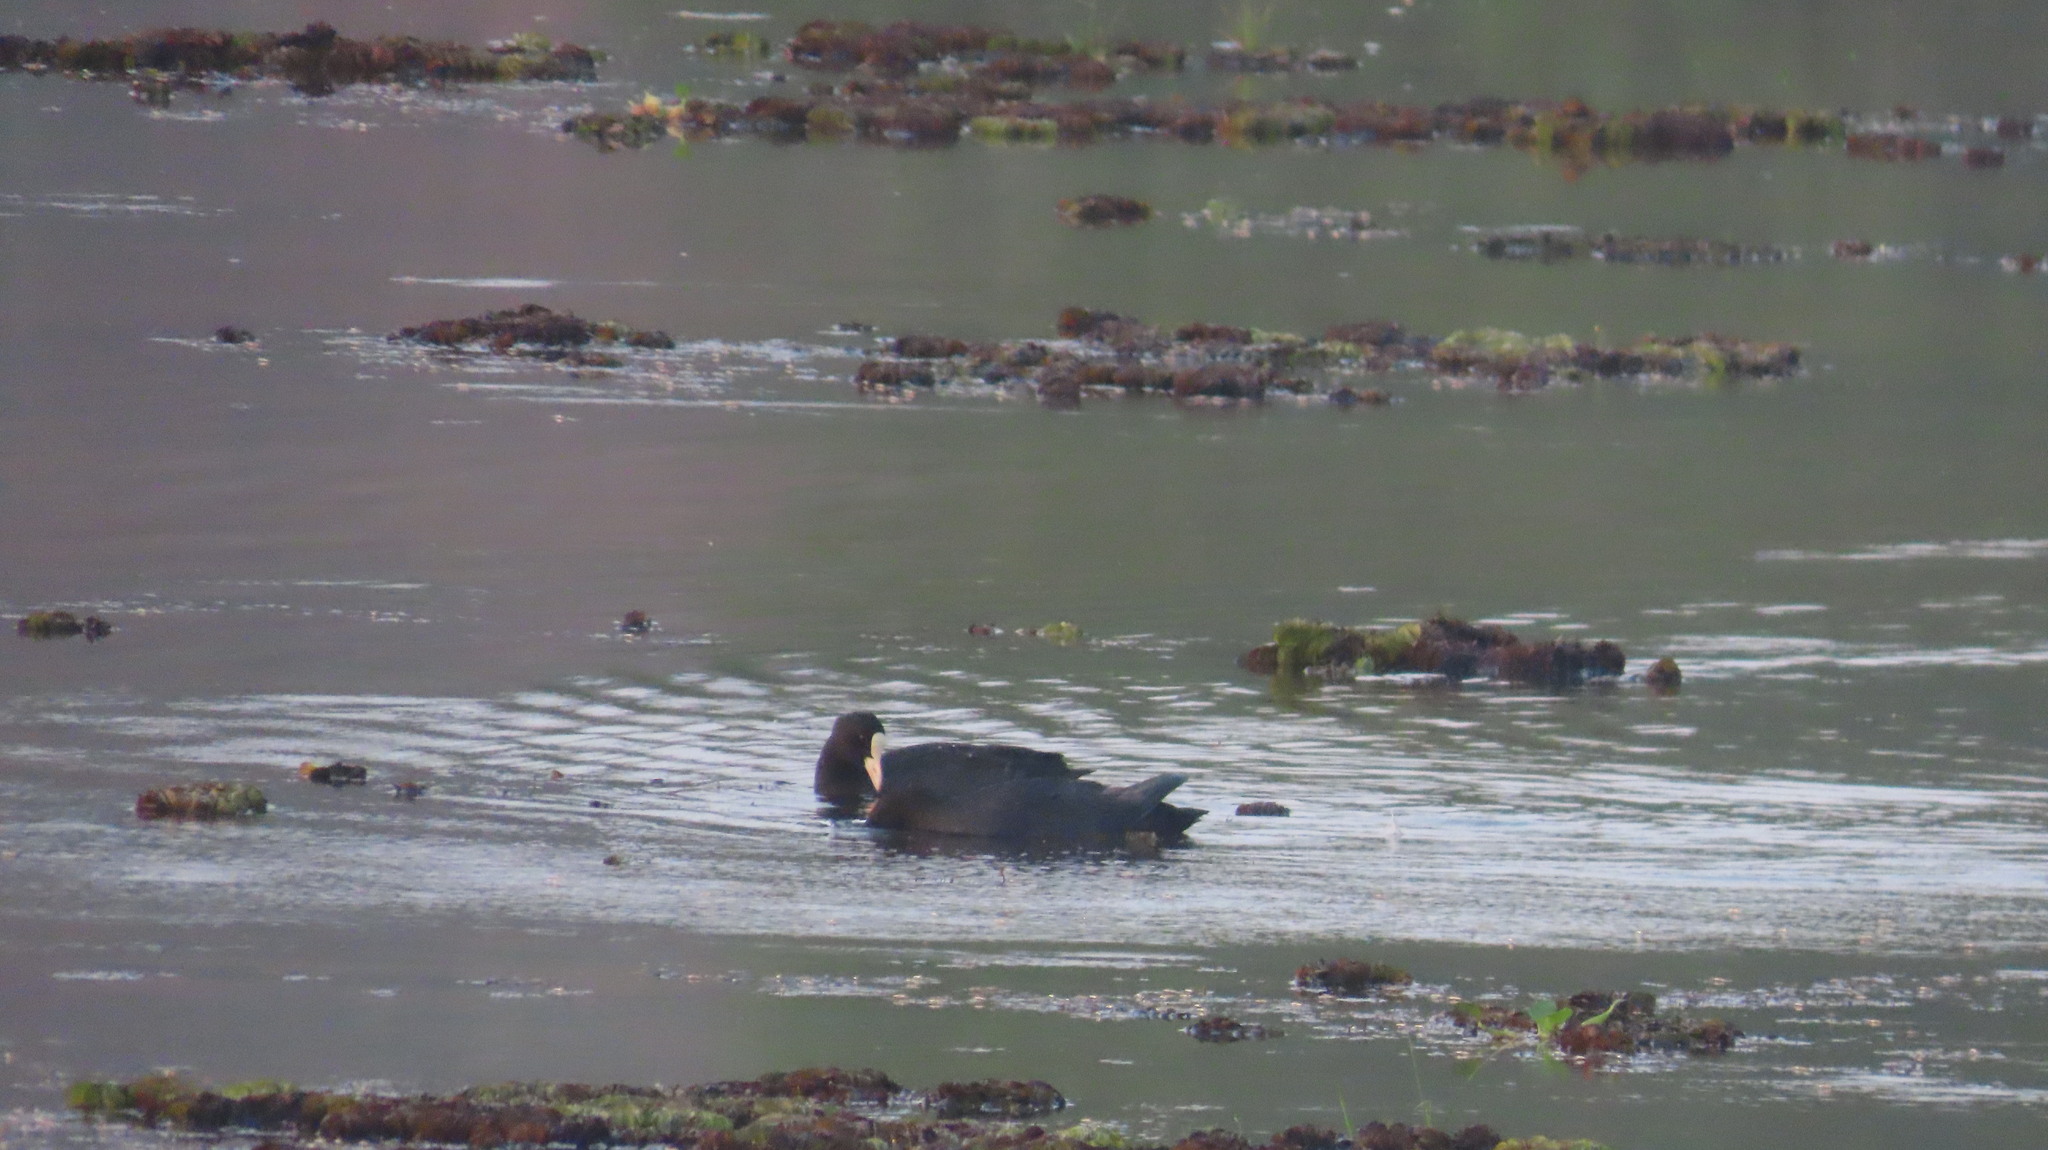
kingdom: Animalia
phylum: Chordata
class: Aves
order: Gruiformes
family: Rallidae
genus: Fulica
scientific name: Fulica atra
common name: Eurasian coot
